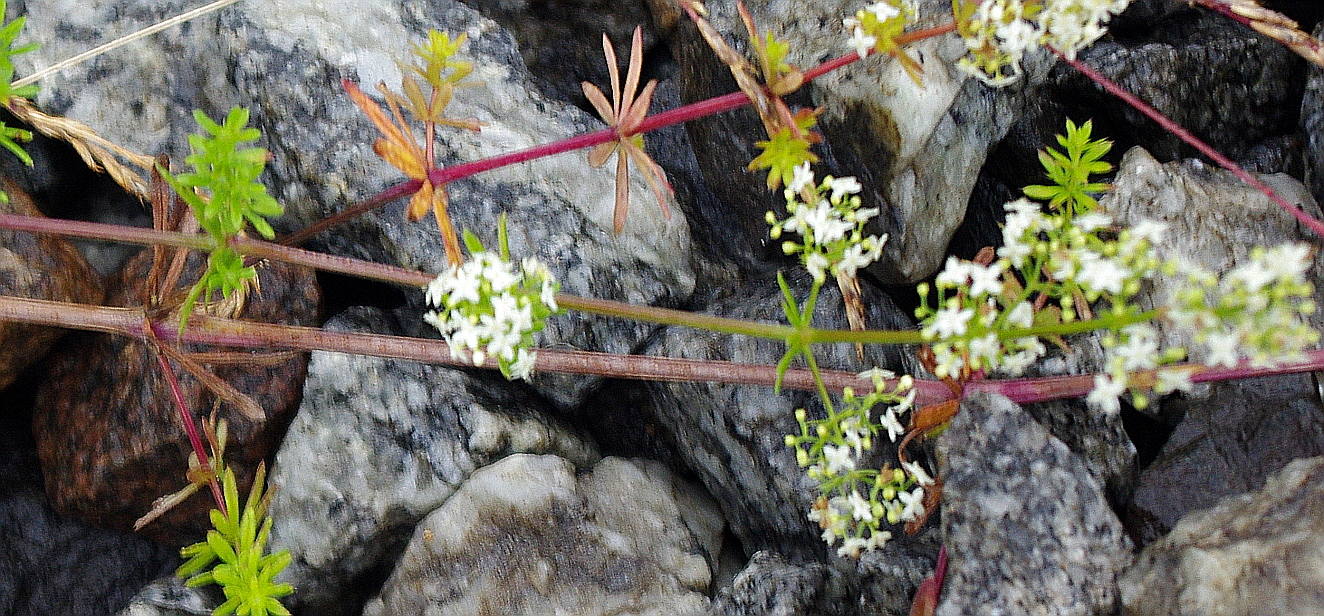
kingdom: Plantae
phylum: Tracheophyta
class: Magnoliopsida
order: Gentianales
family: Rubiaceae
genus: Galium
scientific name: Galium mollugo
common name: Hedge bedstraw
